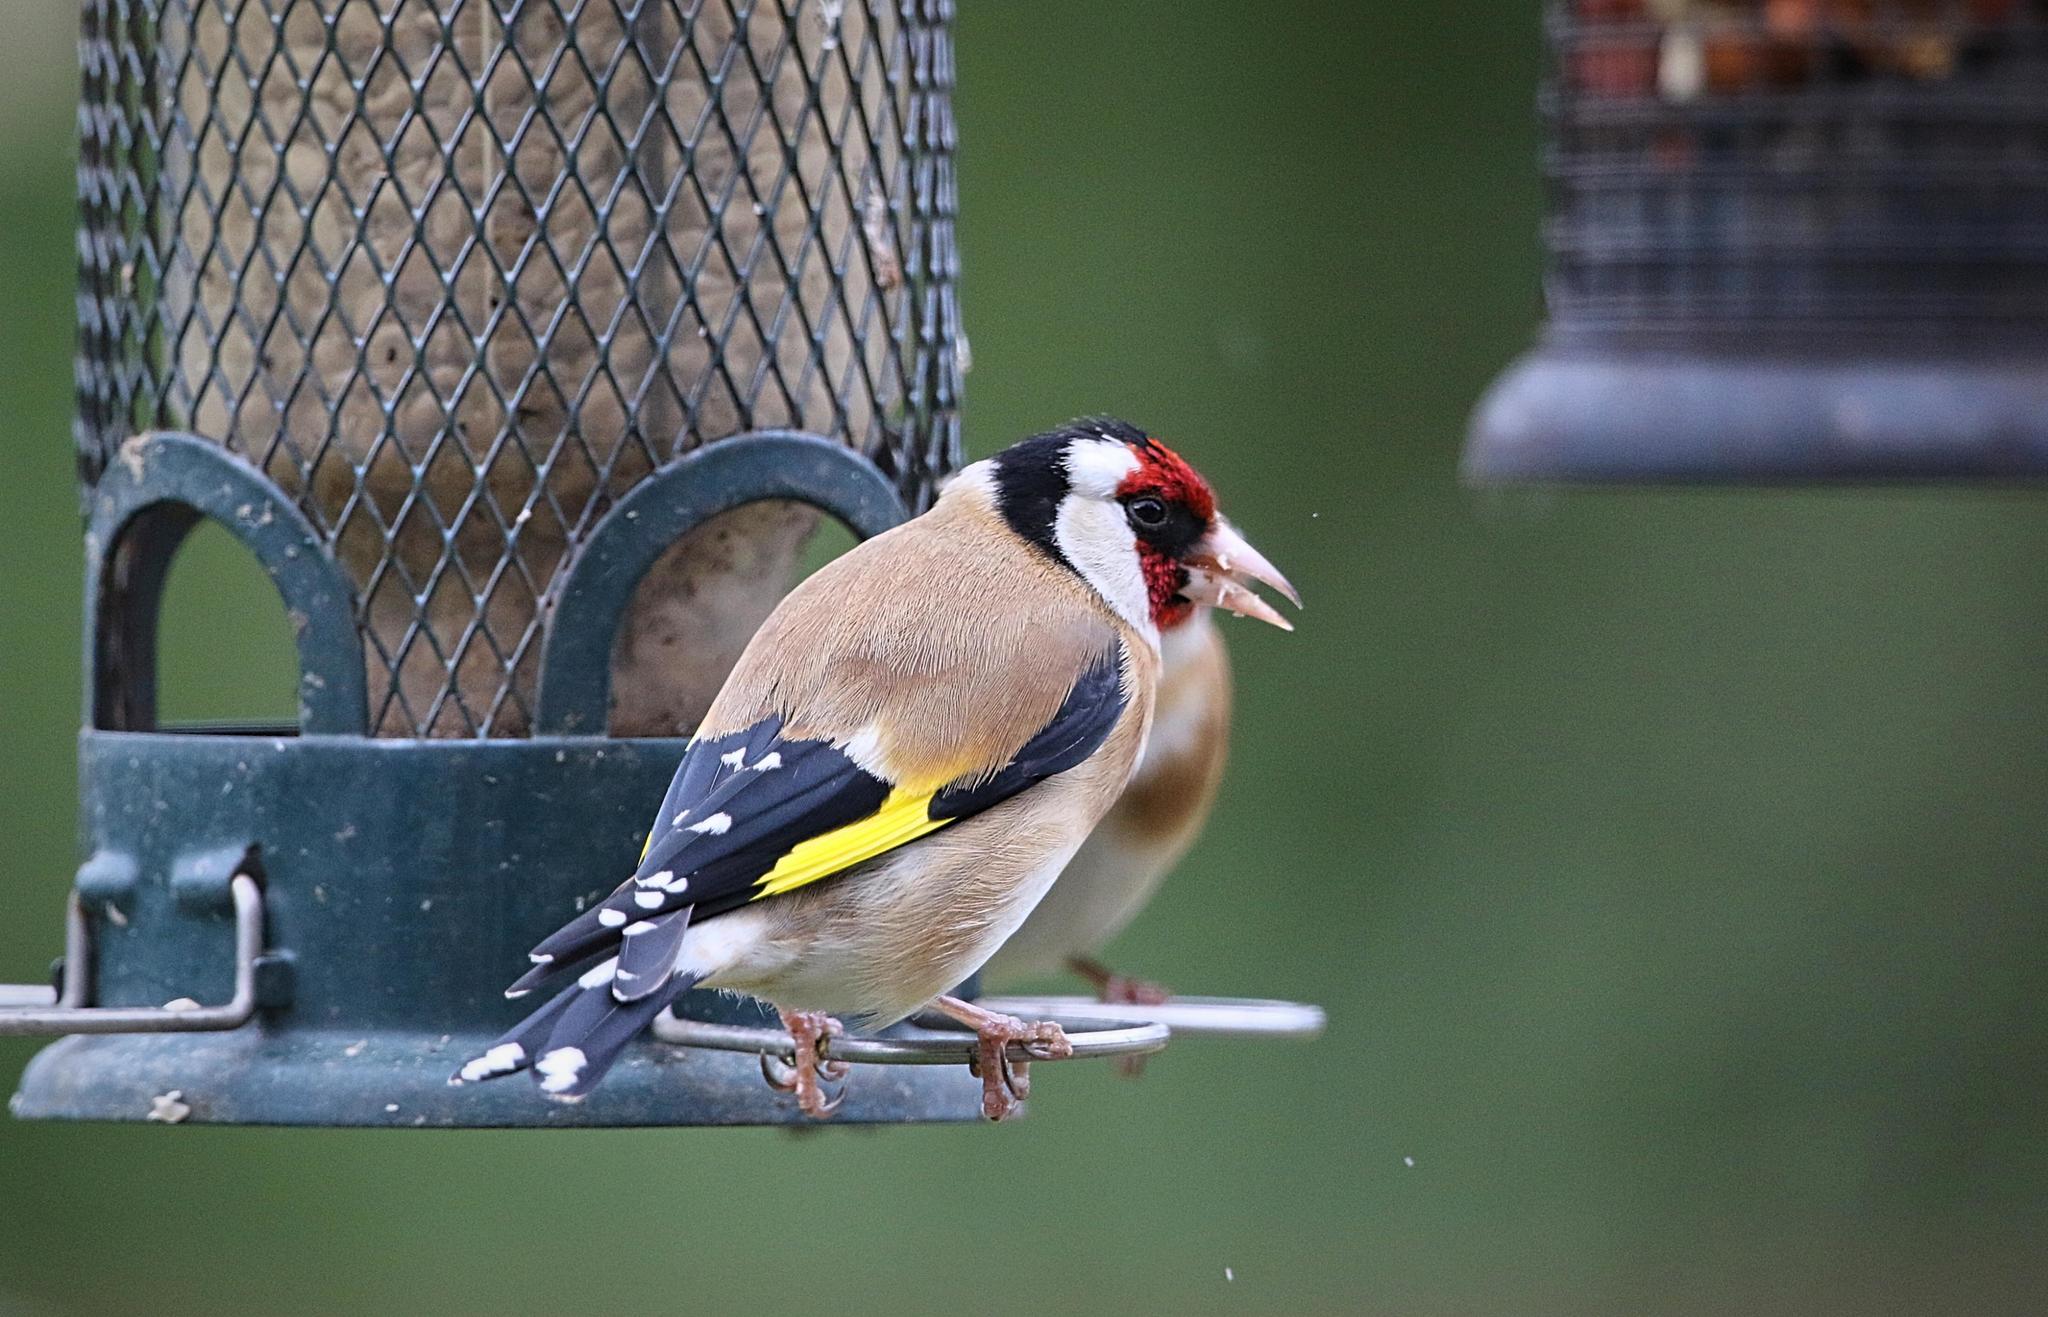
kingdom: Animalia
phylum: Chordata
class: Aves
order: Passeriformes
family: Fringillidae
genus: Carduelis
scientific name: Carduelis carduelis
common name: European goldfinch
